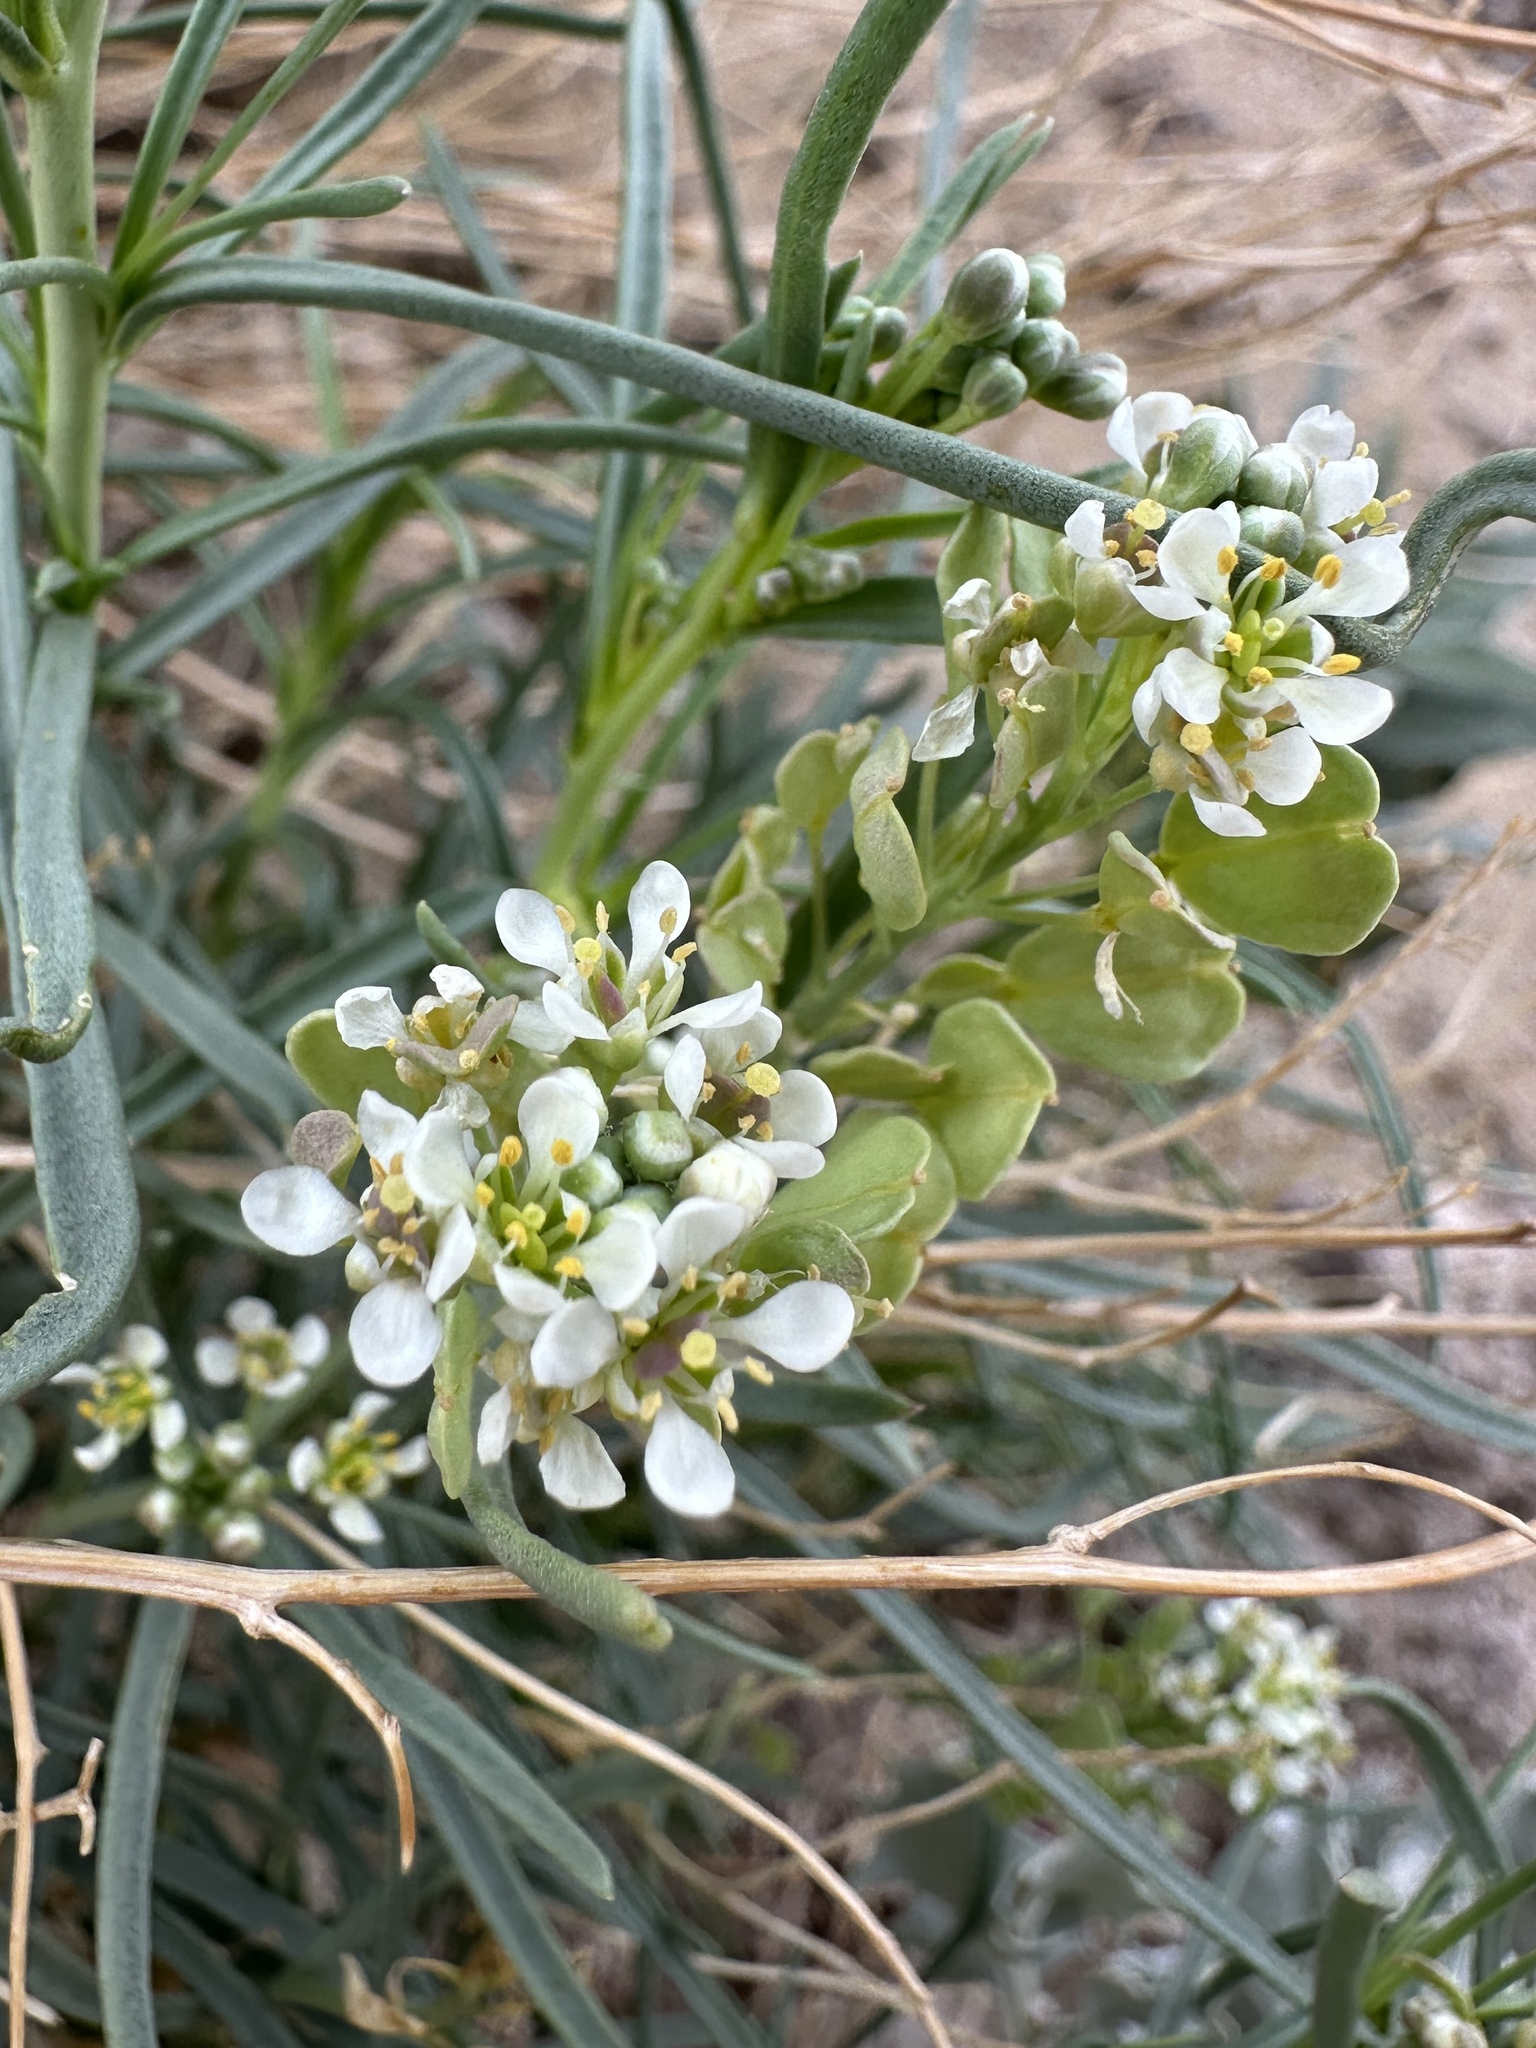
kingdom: Plantae
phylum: Tracheophyta
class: Magnoliopsida
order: Brassicales
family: Brassicaceae
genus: Lepidium
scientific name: Lepidium fremontii
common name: Fremont's pepperwort
